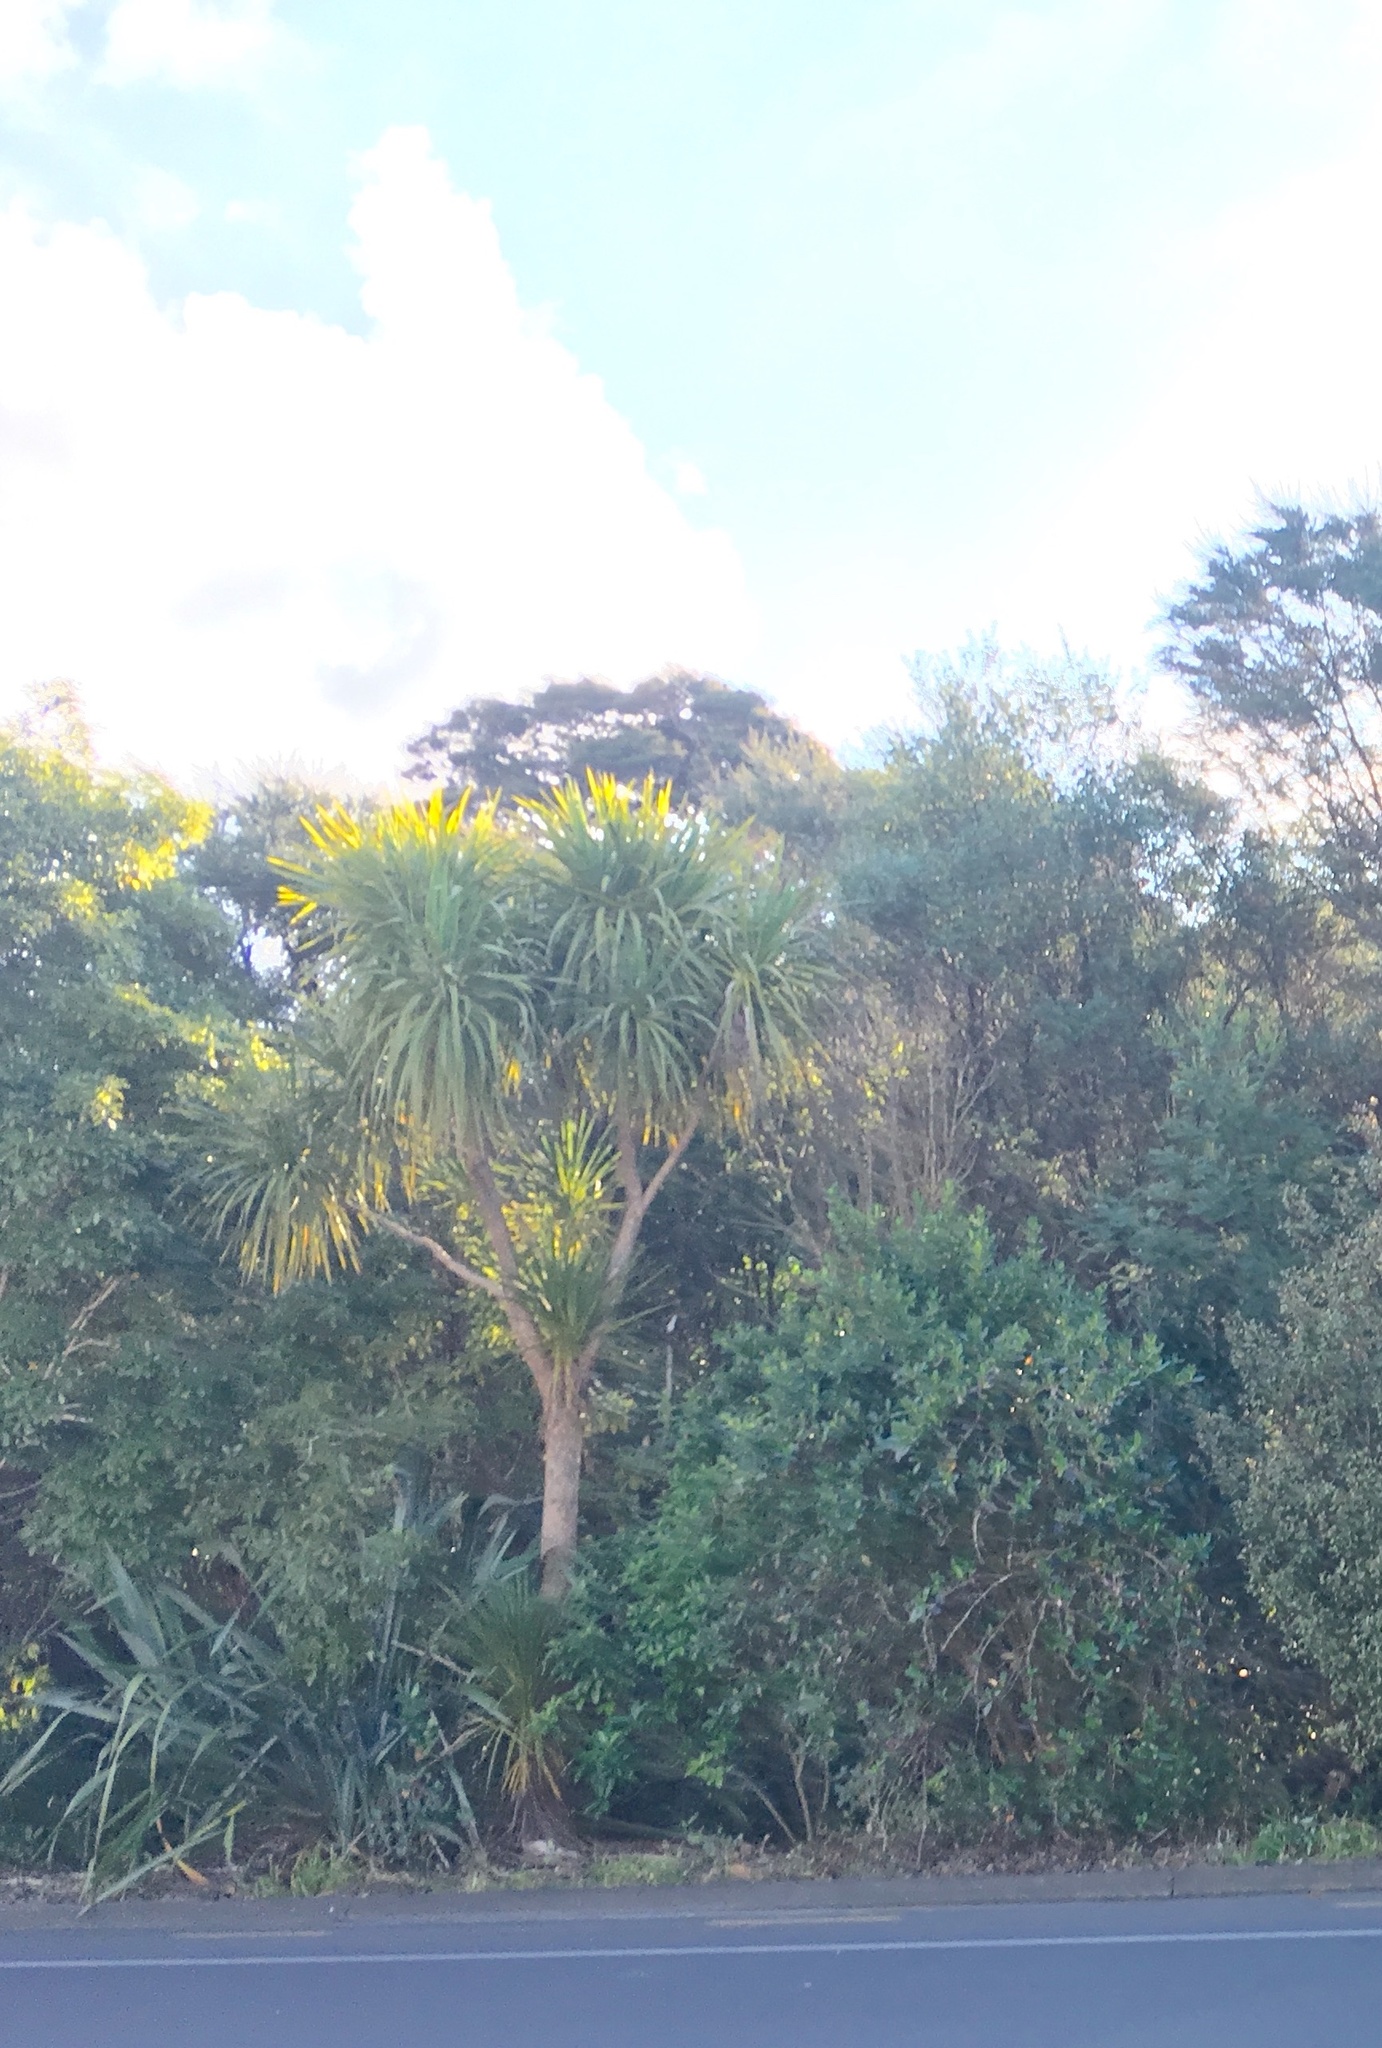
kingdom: Plantae
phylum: Tracheophyta
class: Liliopsida
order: Asparagales
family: Asparagaceae
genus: Cordyline
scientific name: Cordyline australis
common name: Cabbage-palm
